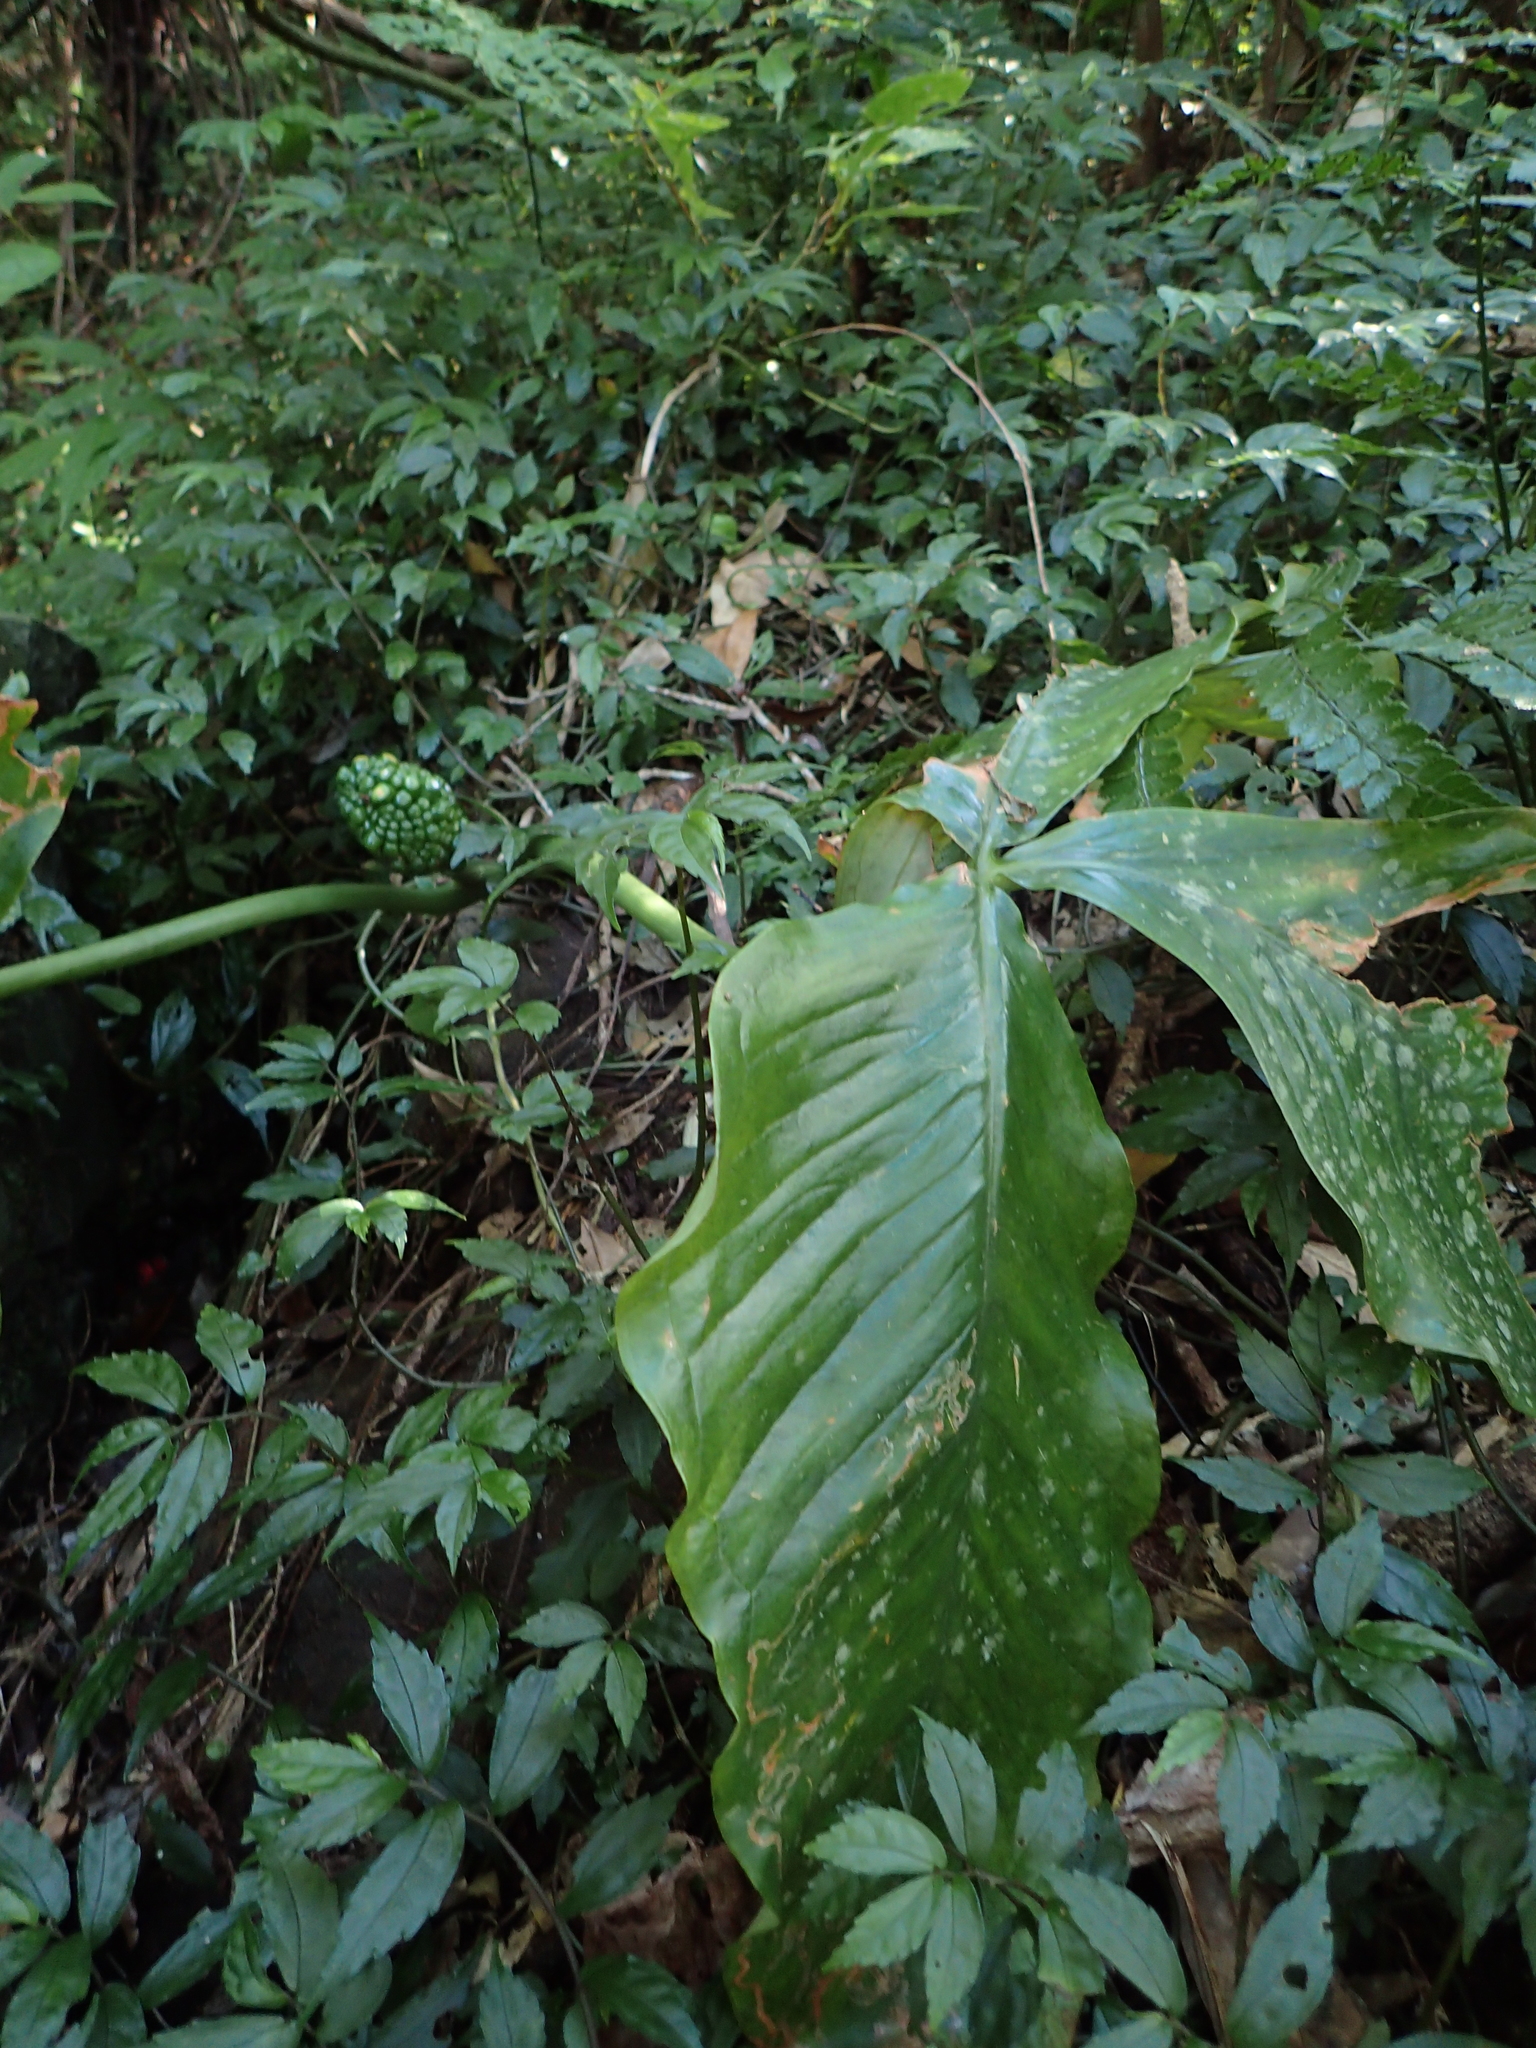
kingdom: Plantae
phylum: Tracheophyta
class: Liliopsida
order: Alismatales
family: Araceae
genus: Arisaema
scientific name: Arisaema ringens
